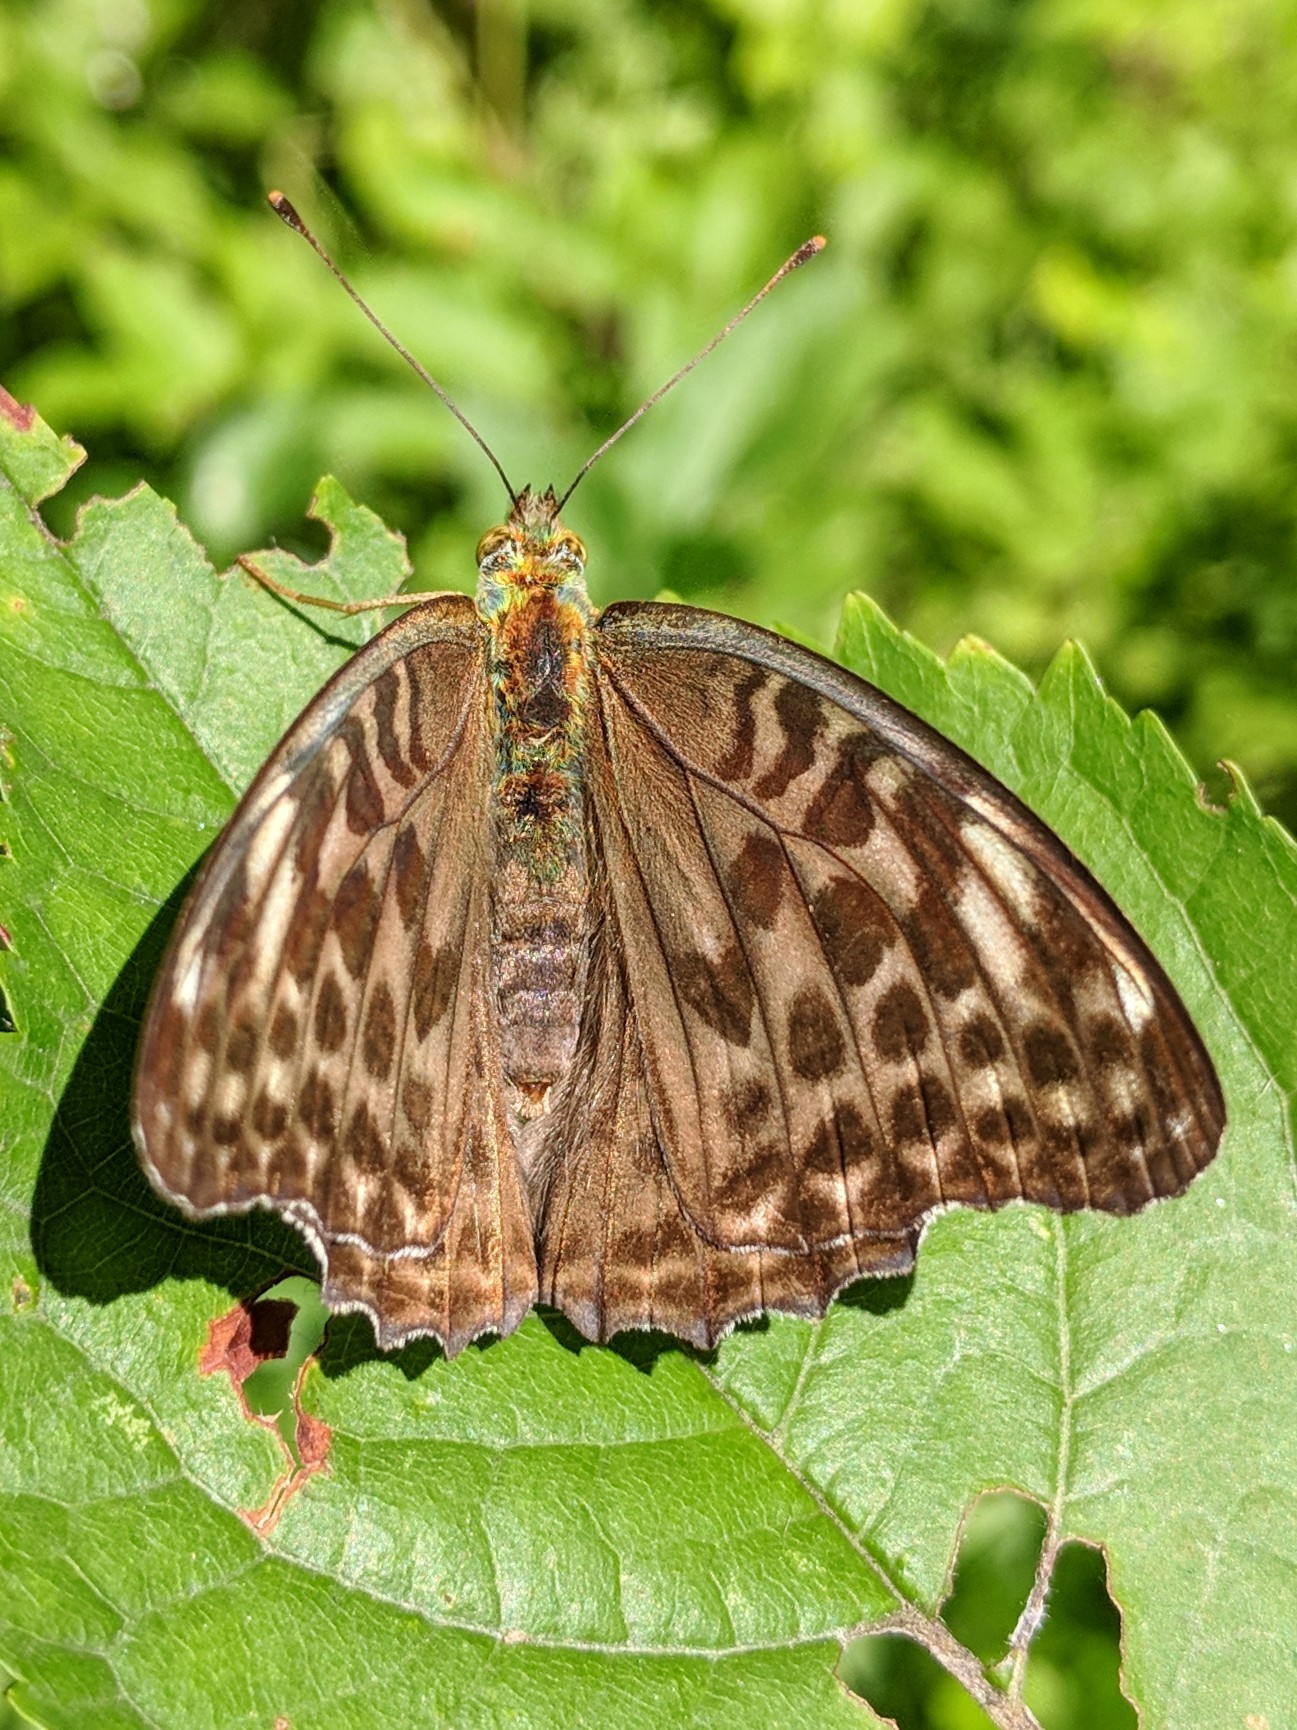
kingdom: Animalia
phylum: Arthropoda
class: Insecta
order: Lepidoptera
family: Nymphalidae
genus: Argynnis
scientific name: Argynnis paphia
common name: Silver-washed fritillary
